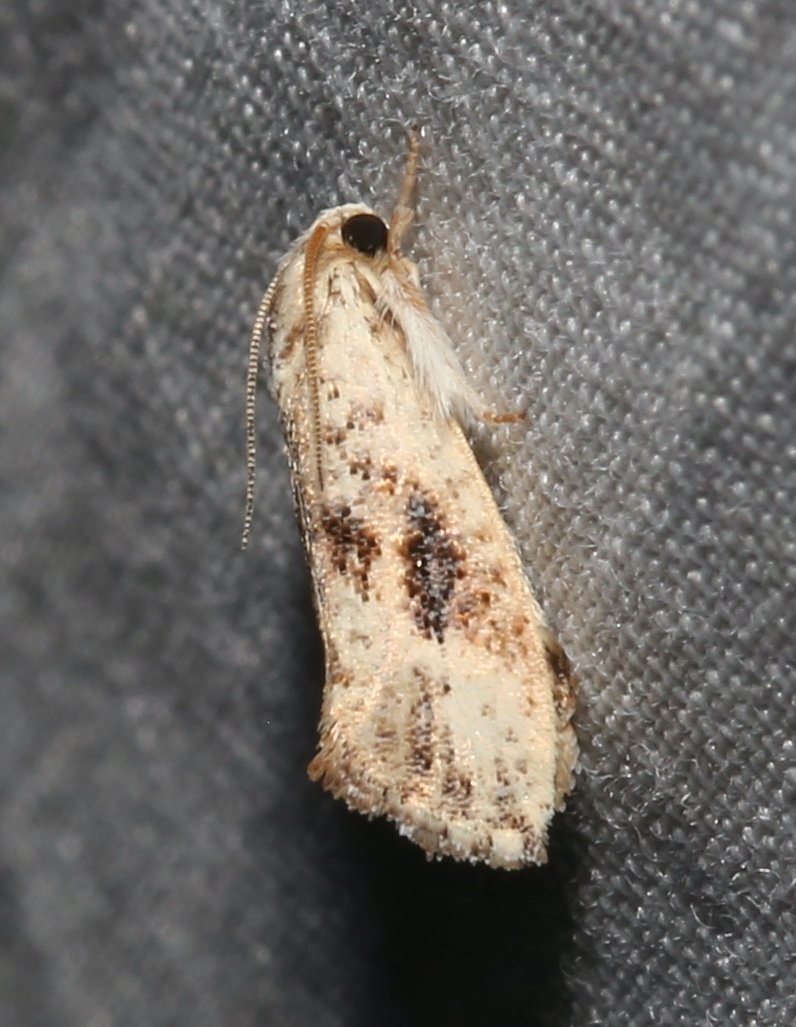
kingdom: Animalia
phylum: Arthropoda
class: Insecta
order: Lepidoptera
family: Tineidae
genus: Acrolophus
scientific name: Acrolophus mycetophagus
